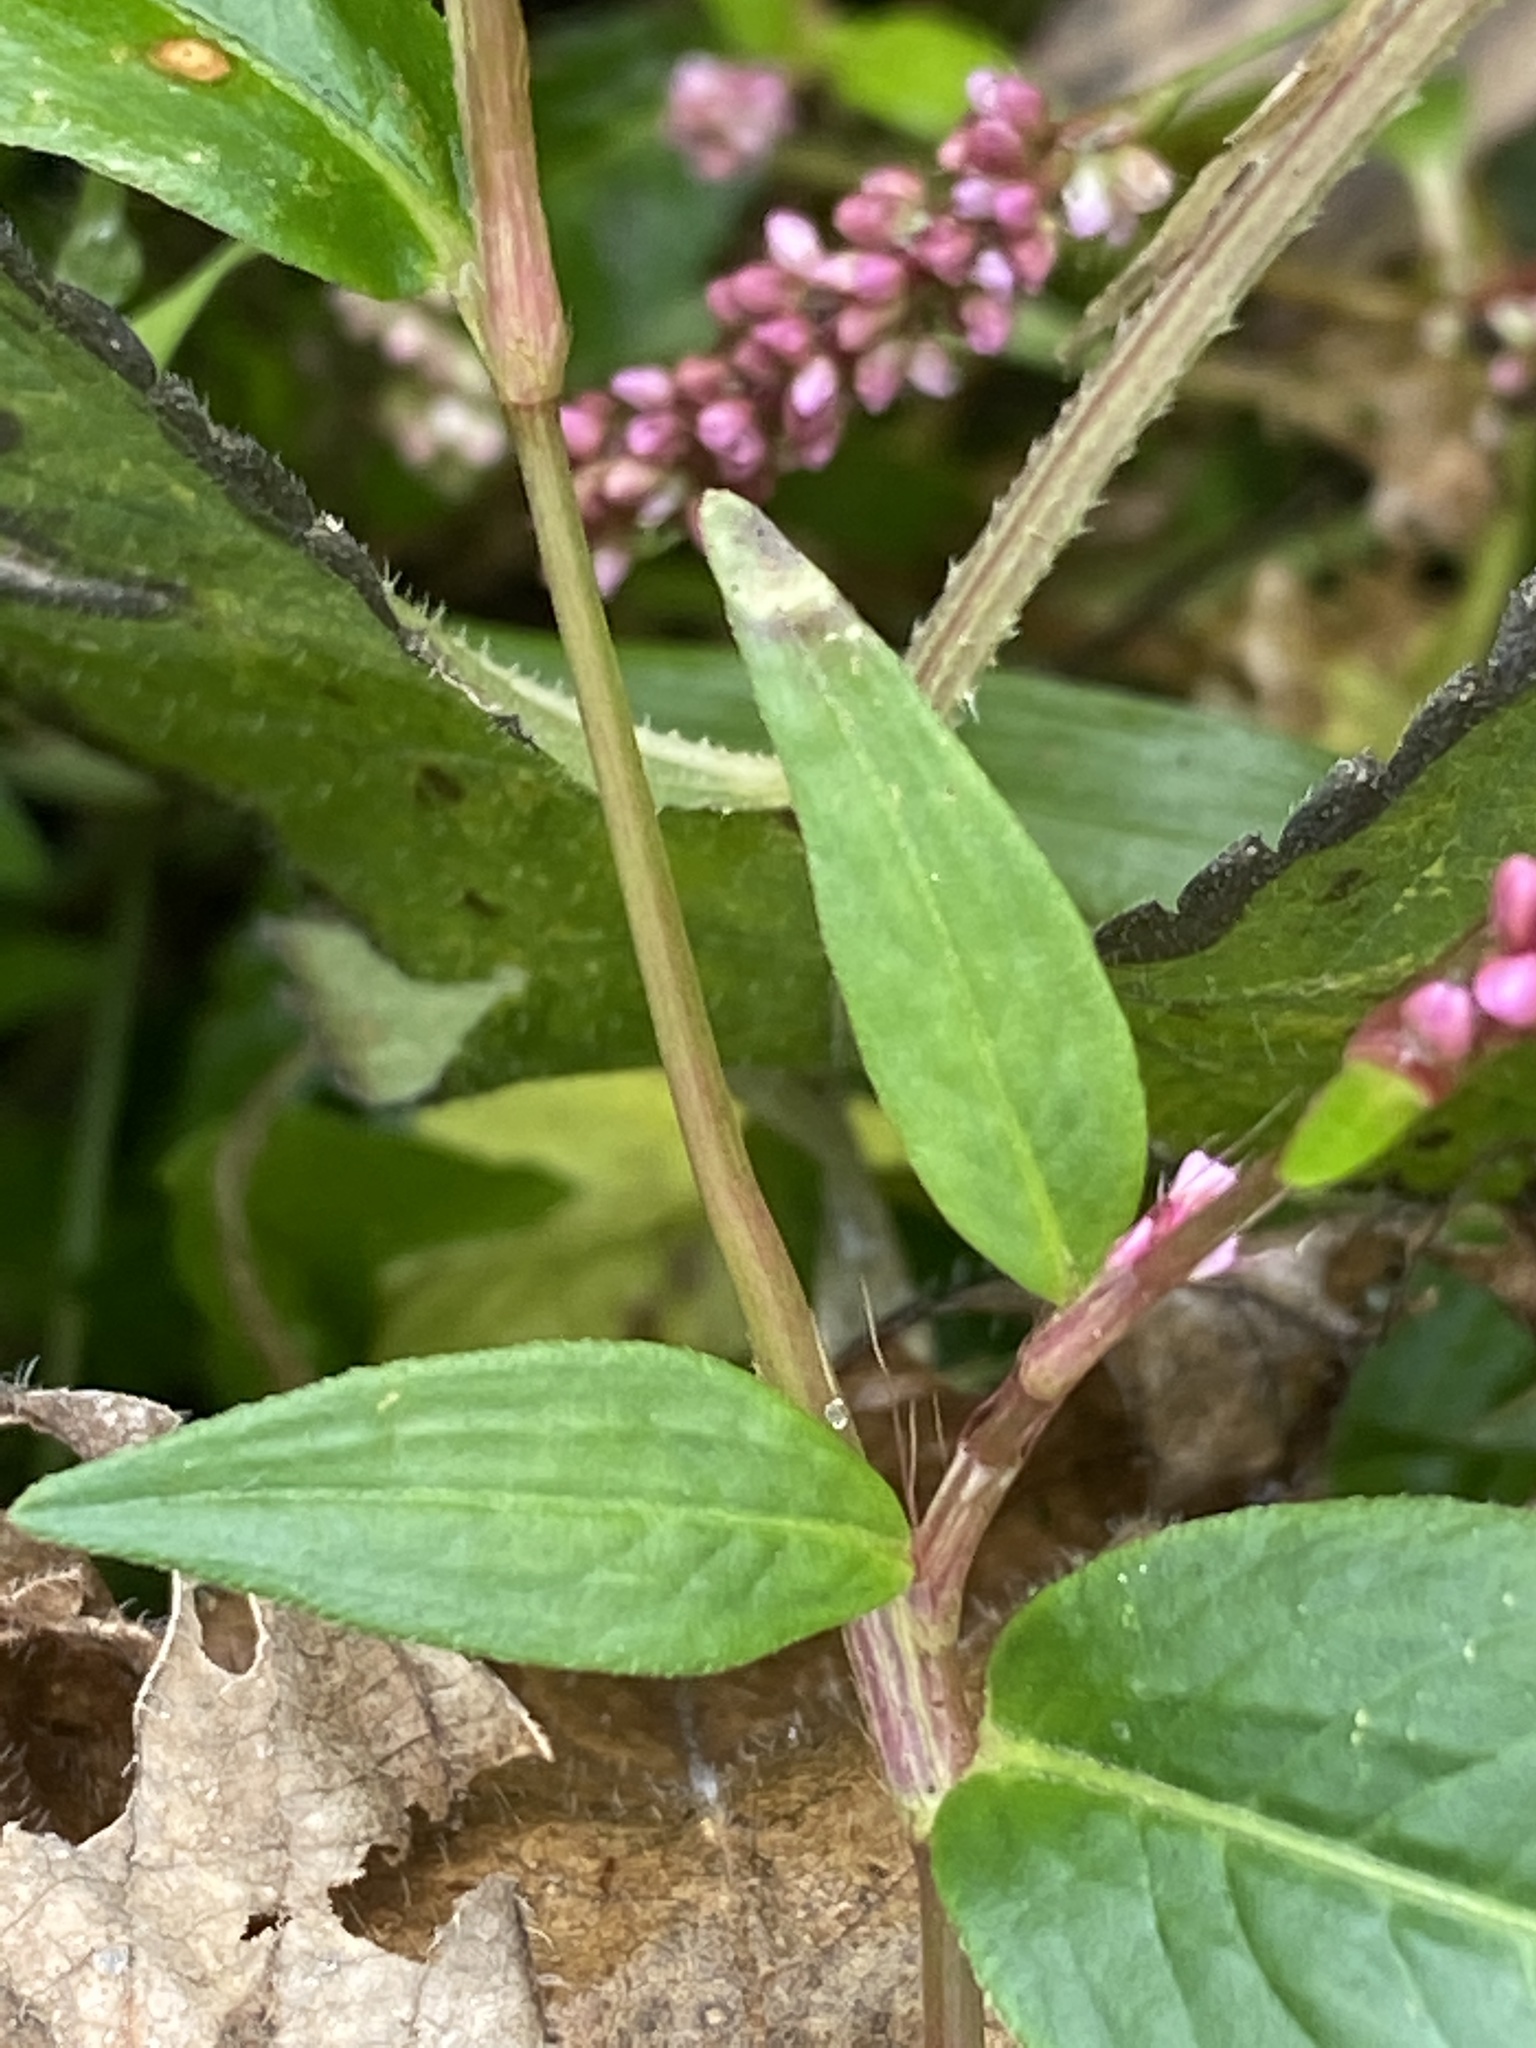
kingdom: Plantae
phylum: Tracheophyta
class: Magnoliopsida
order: Caryophyllales
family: Polygonaceae
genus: Persicaria
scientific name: Persicaria longiseta
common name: Bristly lady's-thumb
